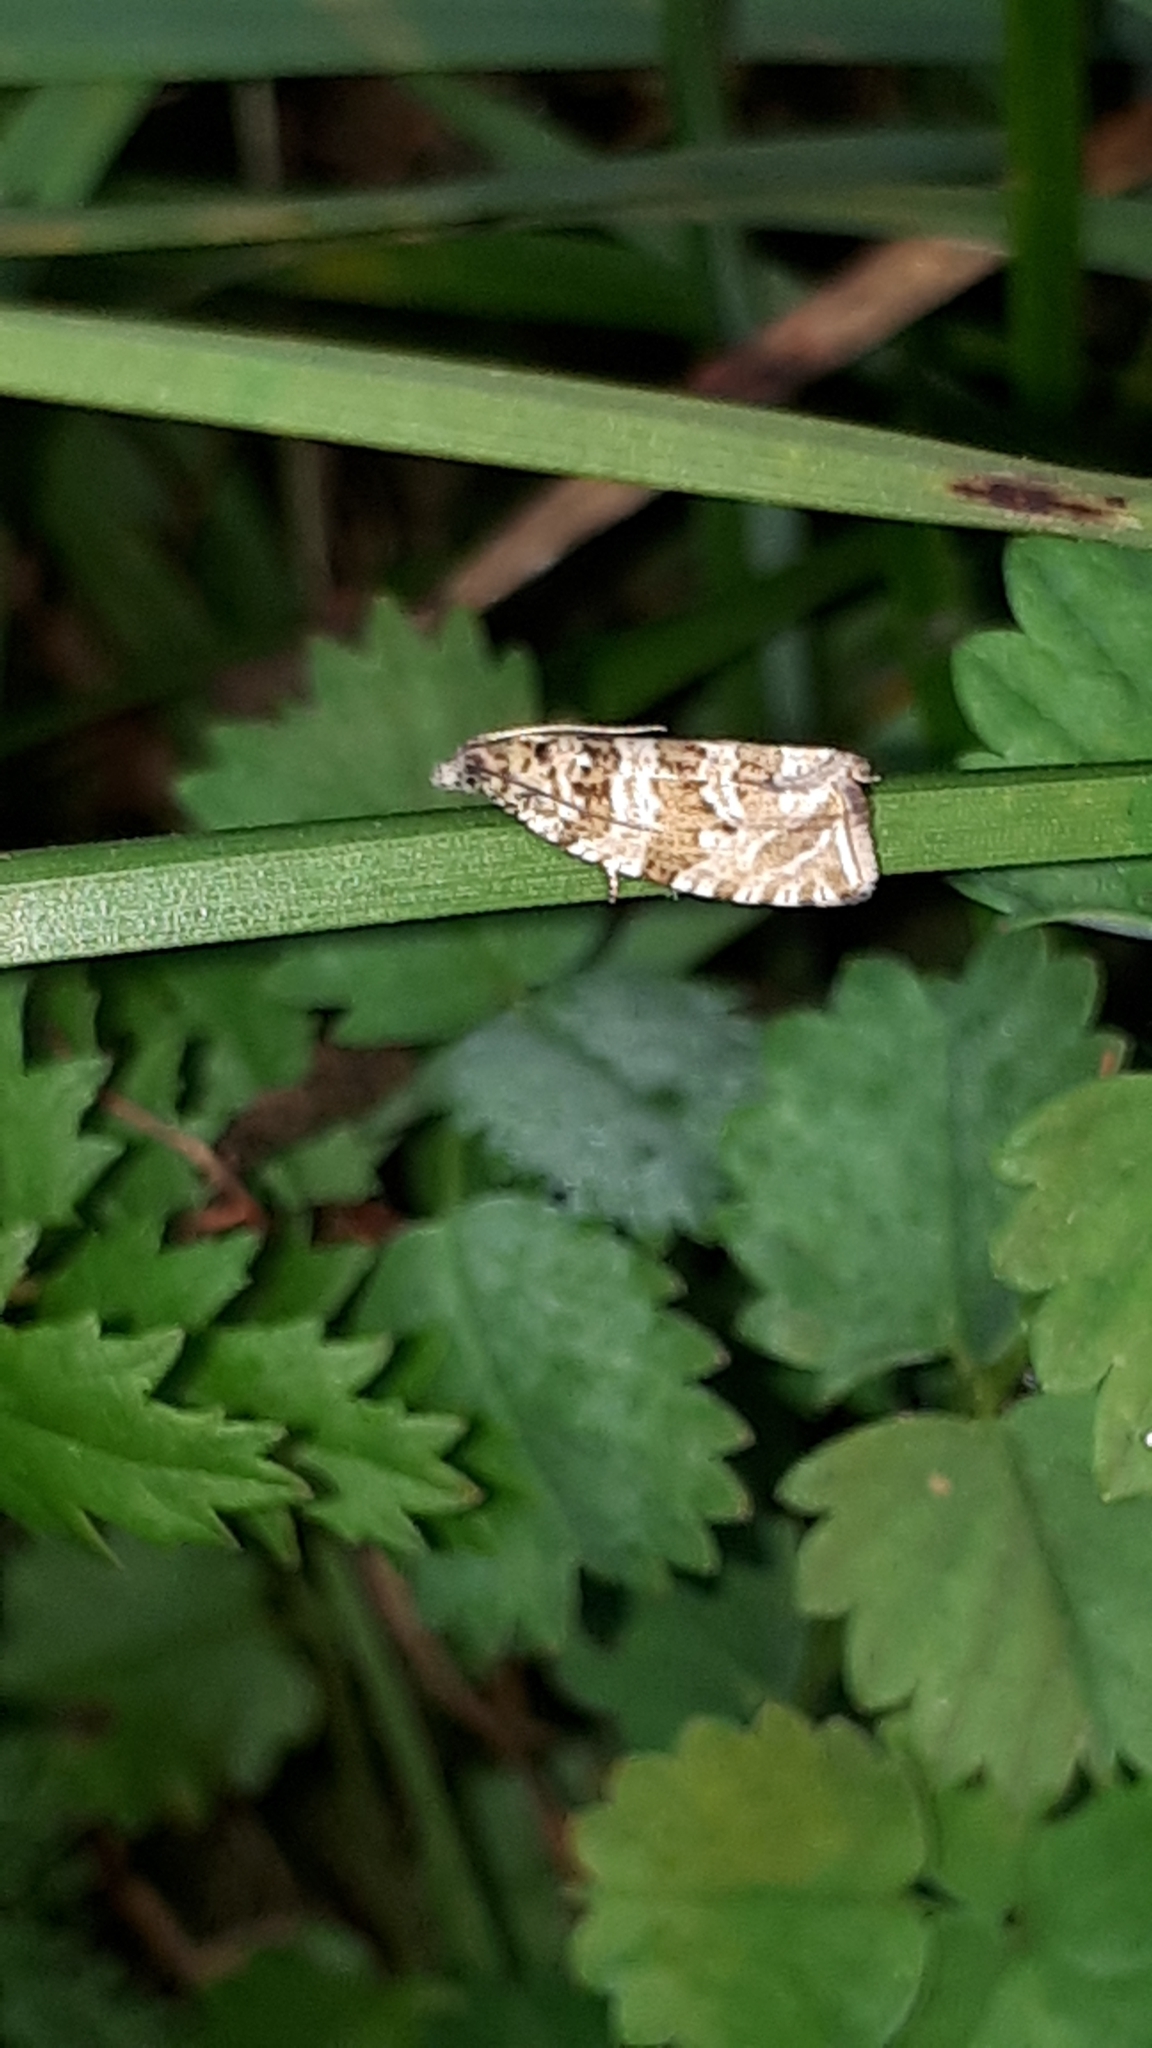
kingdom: Animalia
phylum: Arthropoda
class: Insecta
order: Lepidoptera
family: Tortricidae
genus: Syricoris
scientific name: Syricoris rivulana
